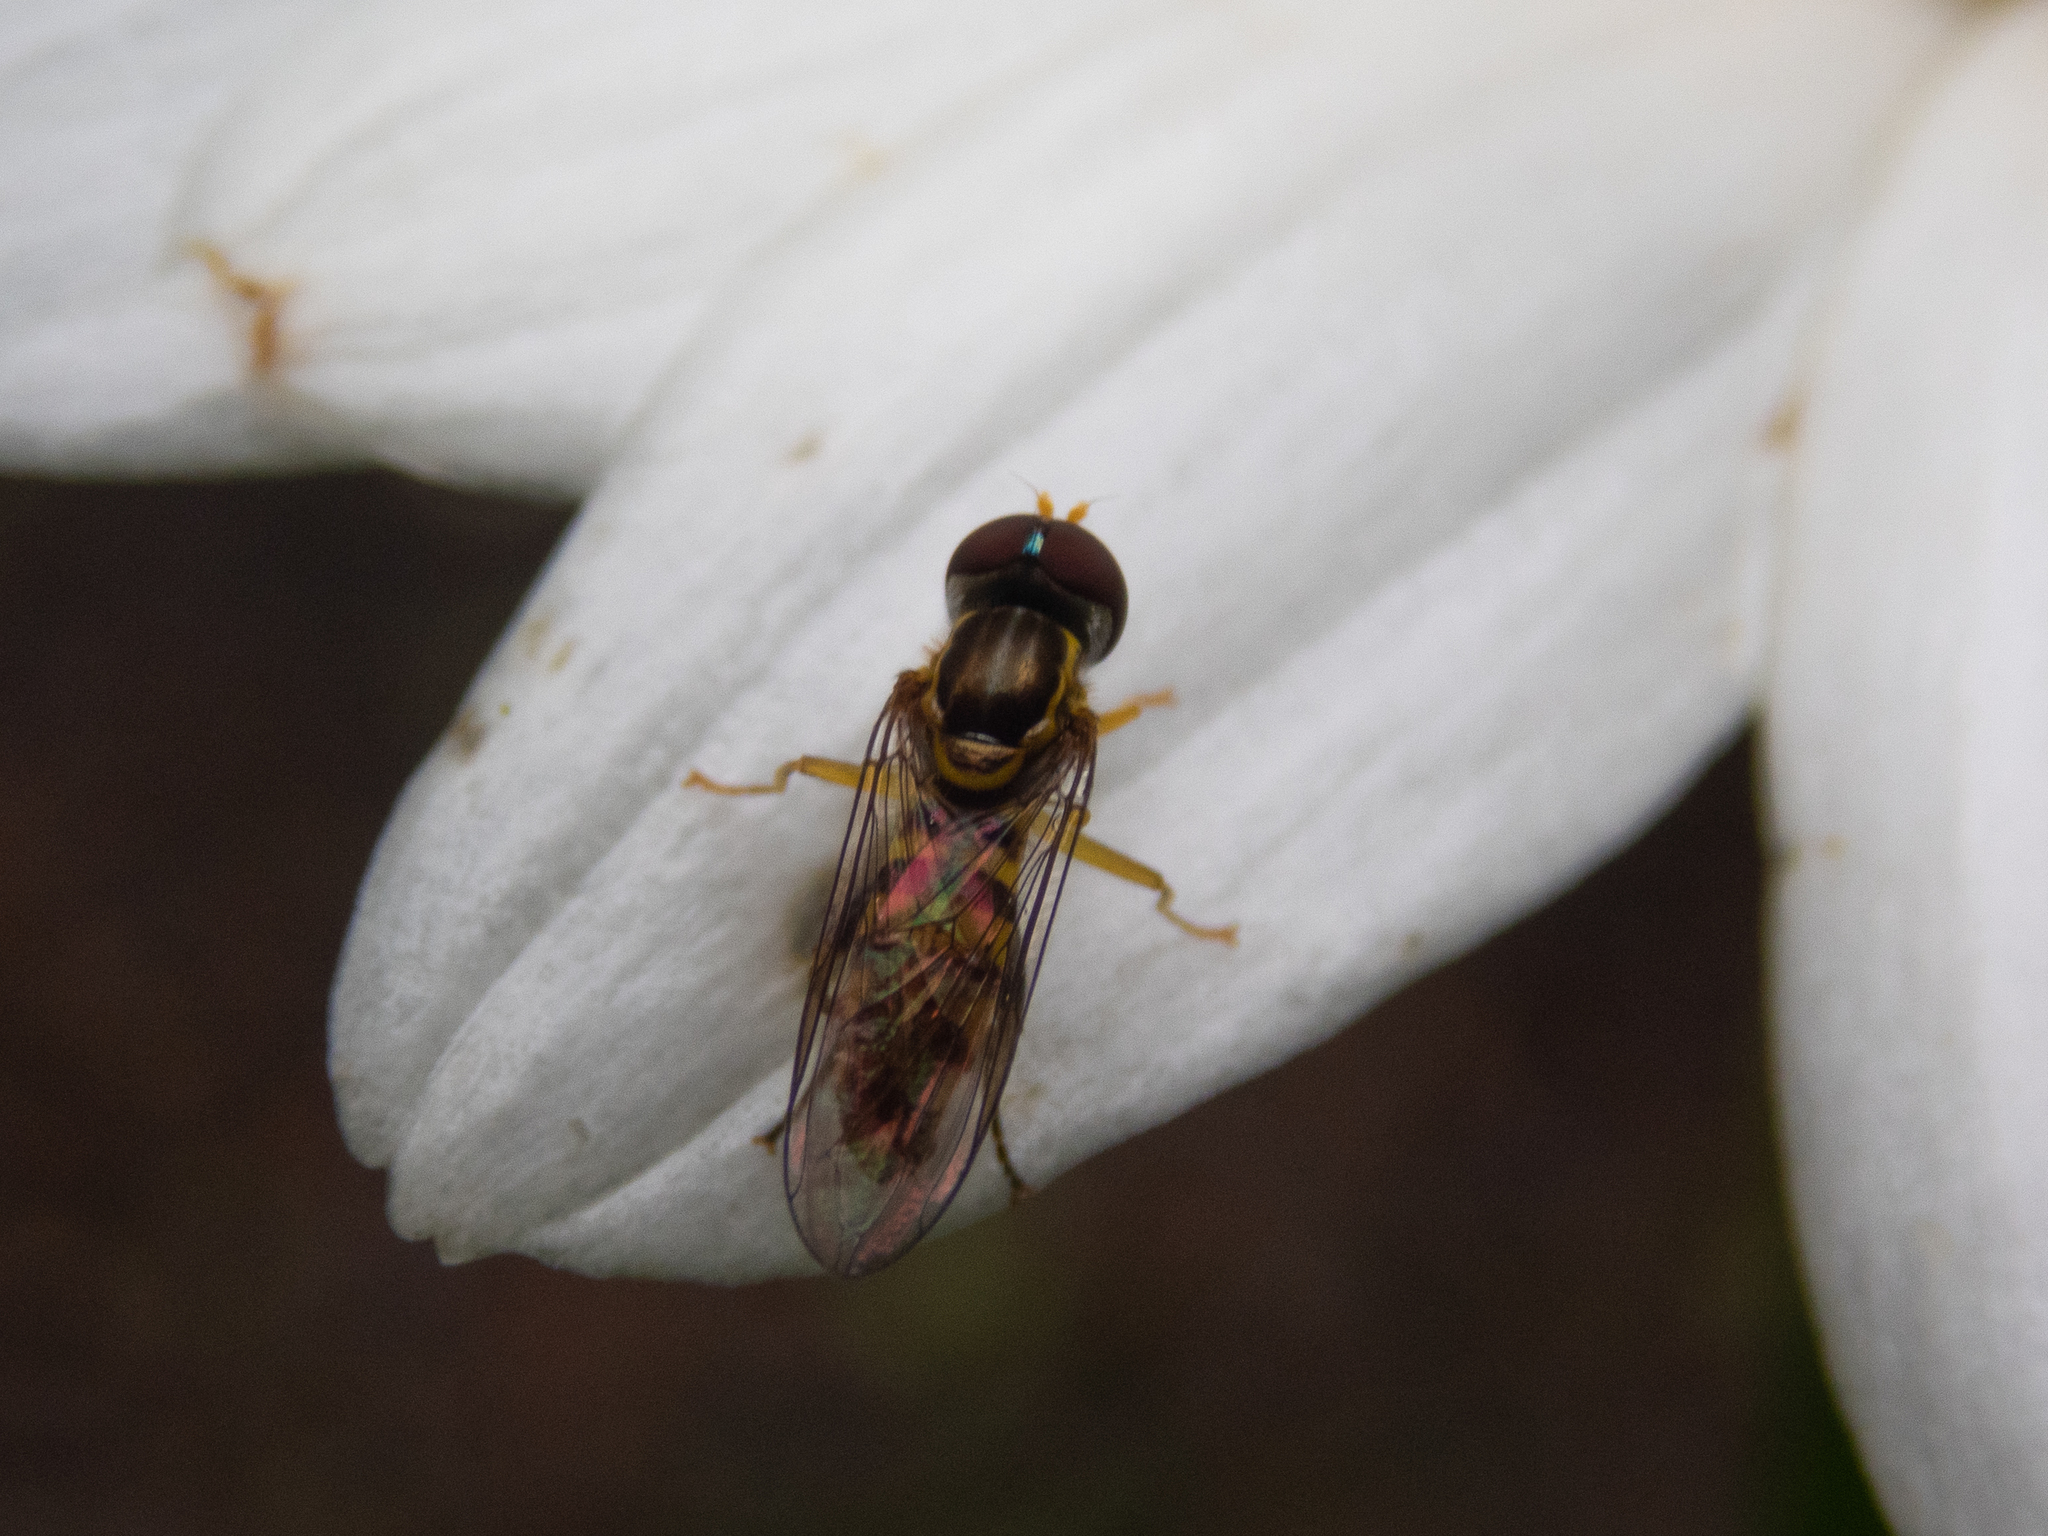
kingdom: Animalia
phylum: Arthropoda
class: Insecta
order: Diptera
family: Syrphidae
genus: Toxomerus
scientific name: Toxomerus geminatus
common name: Eastern calligrapher
